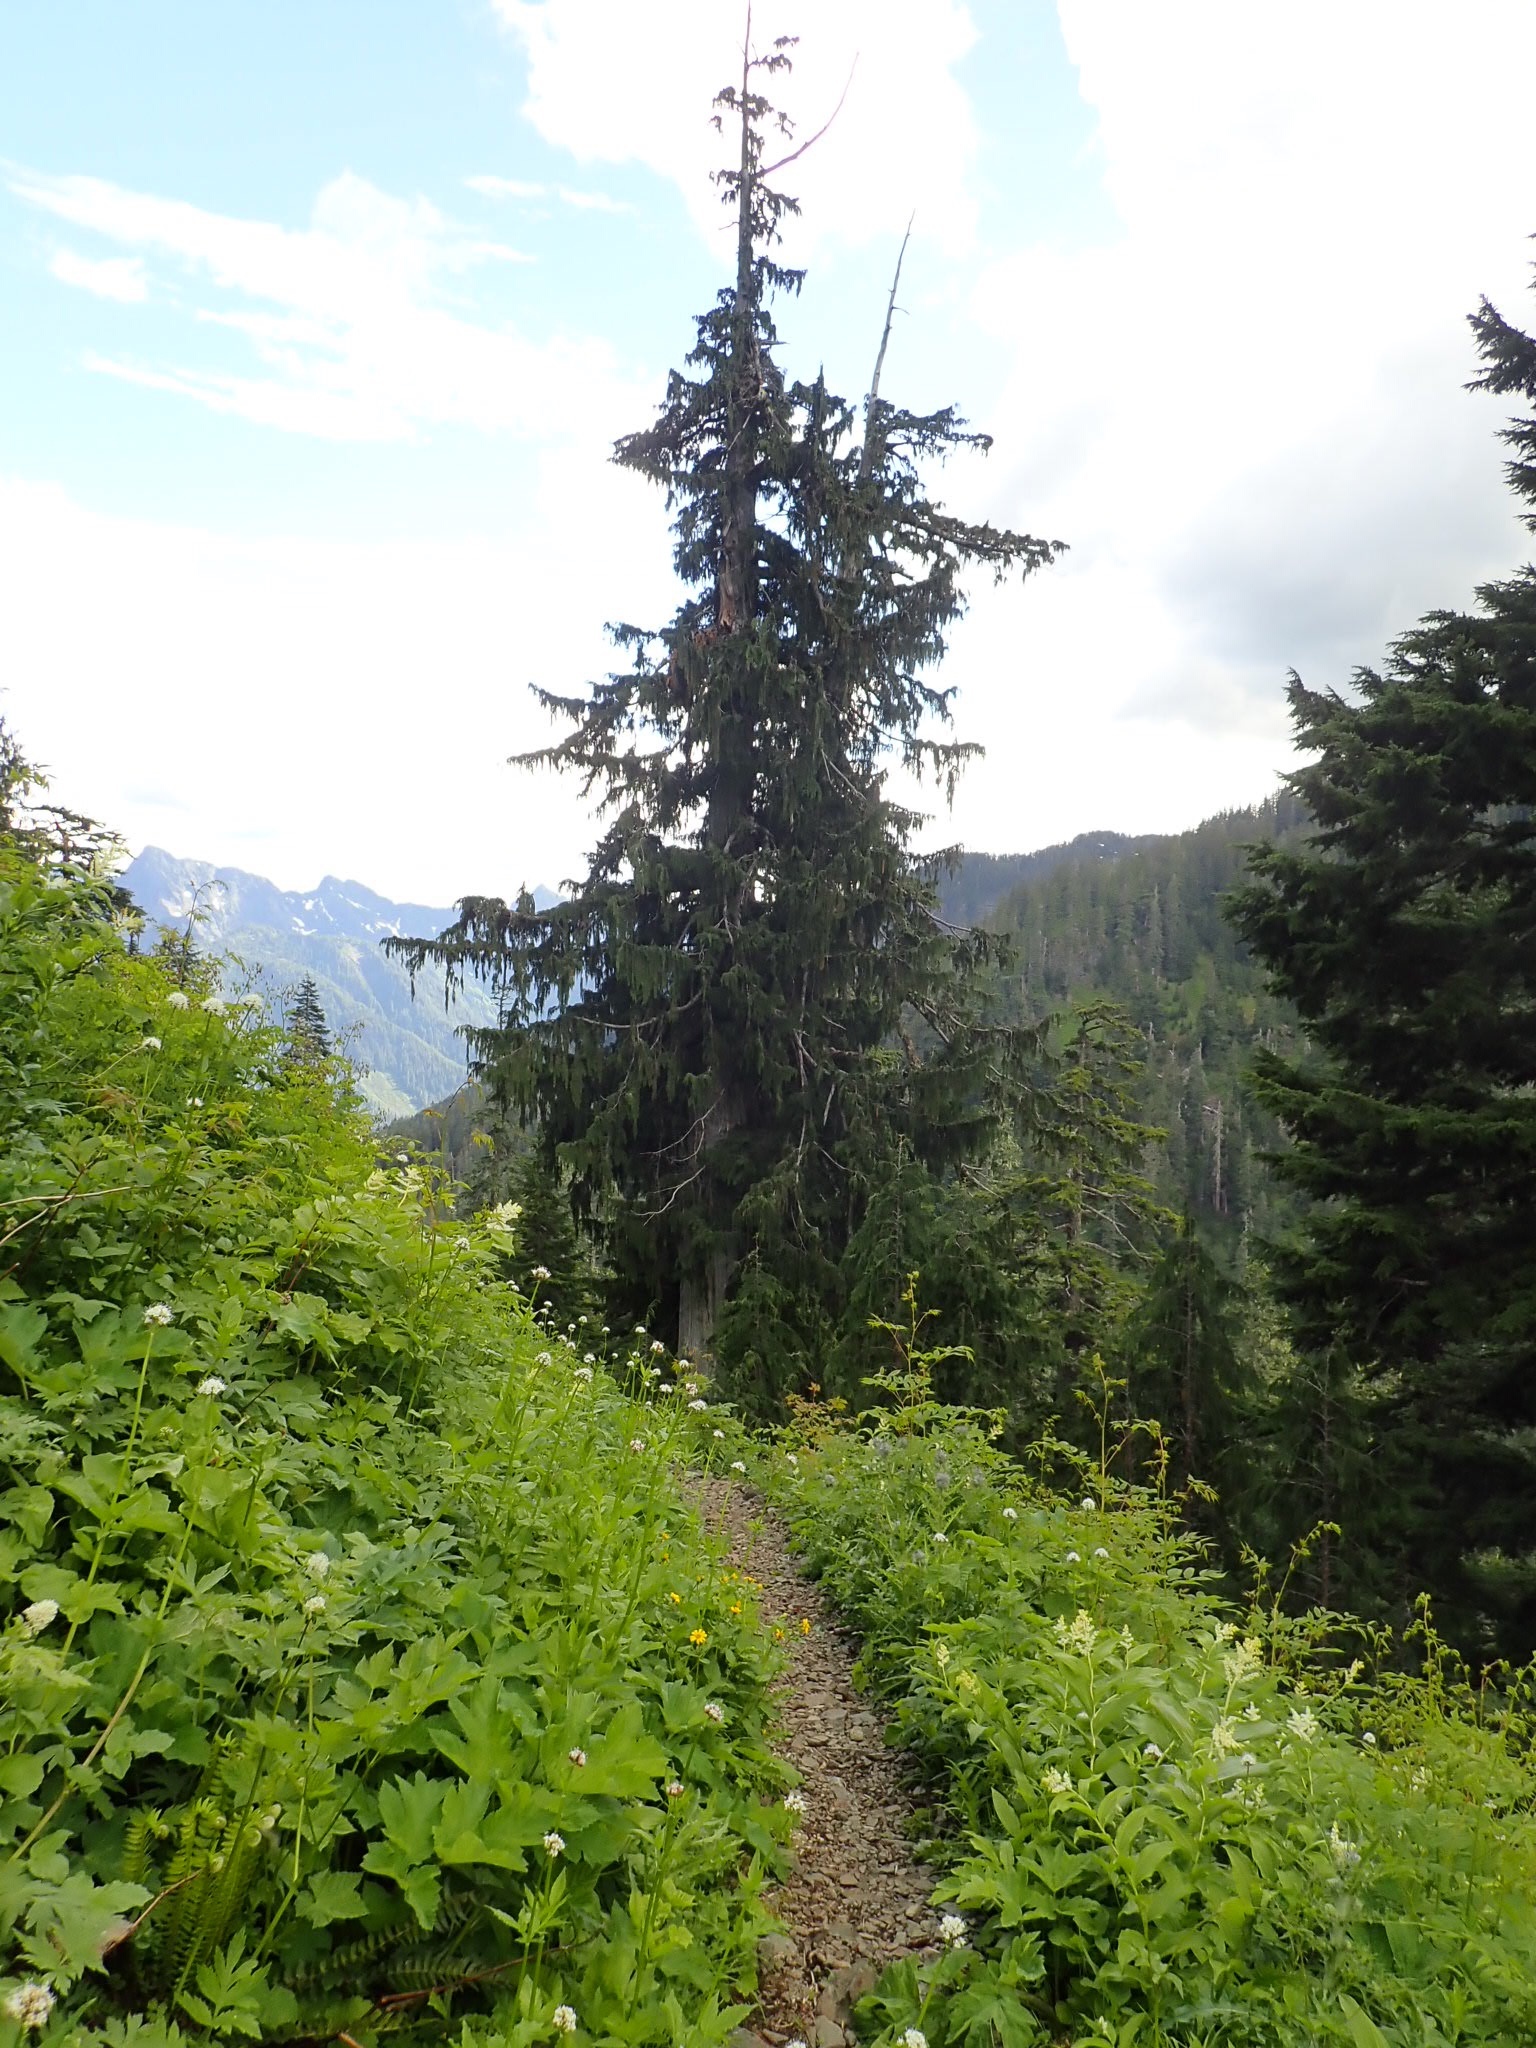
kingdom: Plantae
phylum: Tracheophyta
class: Pinopsida
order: Pinales
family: Cupressaceae
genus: Xanthocyparis
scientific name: Xanthocyparis nootkatensis
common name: Nootka cypress
